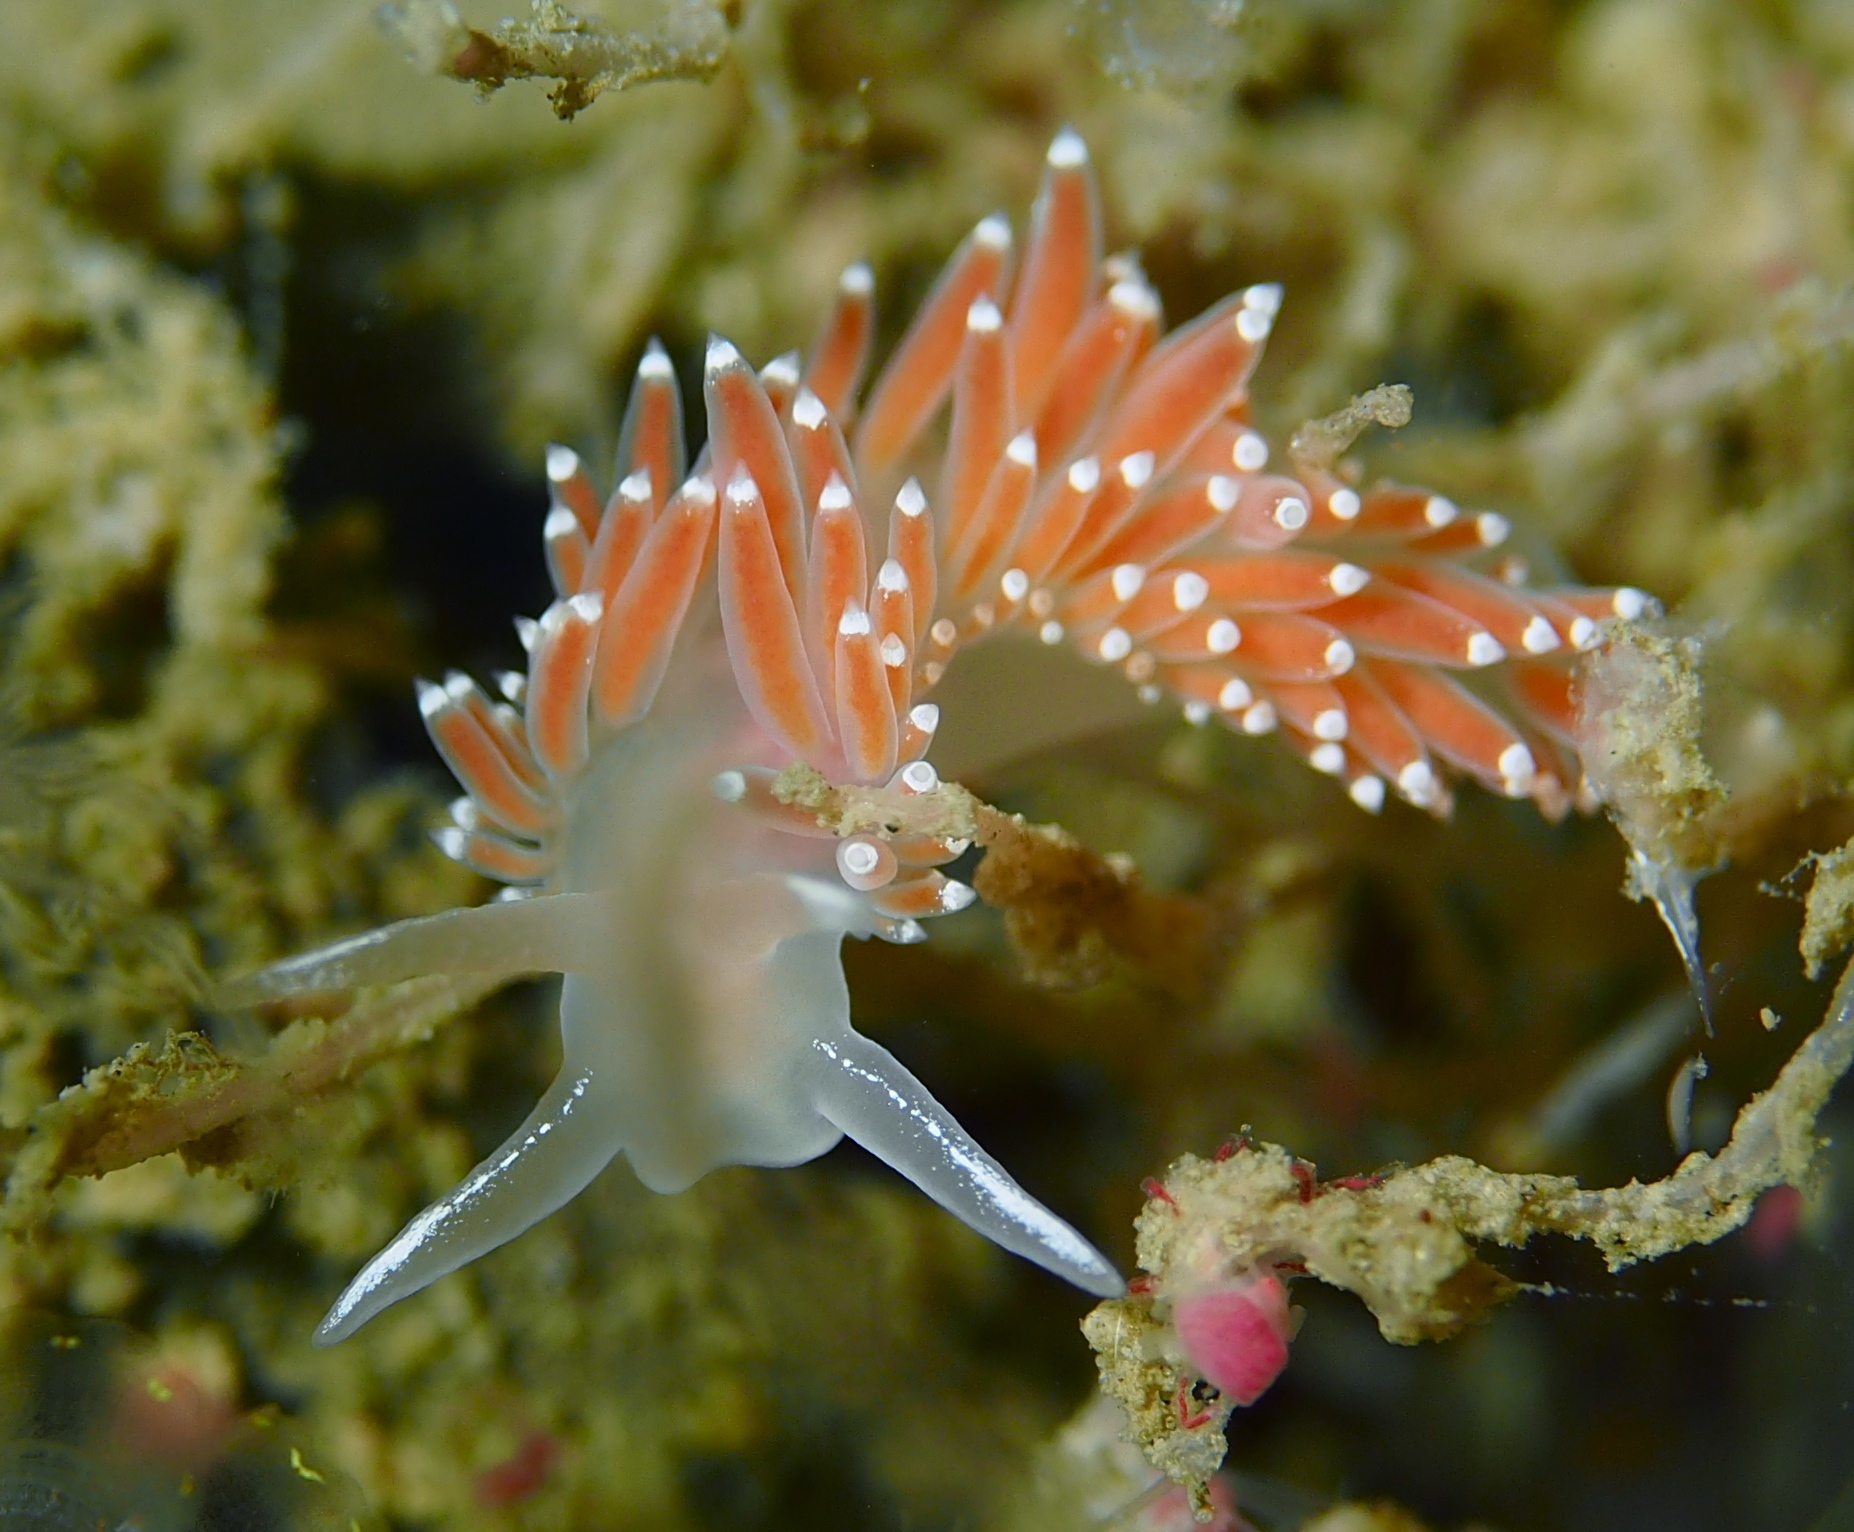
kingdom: Animalia
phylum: Mollusca
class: Gastropoda
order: Nudibranchia
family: Coryphellidae
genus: Coryphella
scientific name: Coryphella verrucosa
